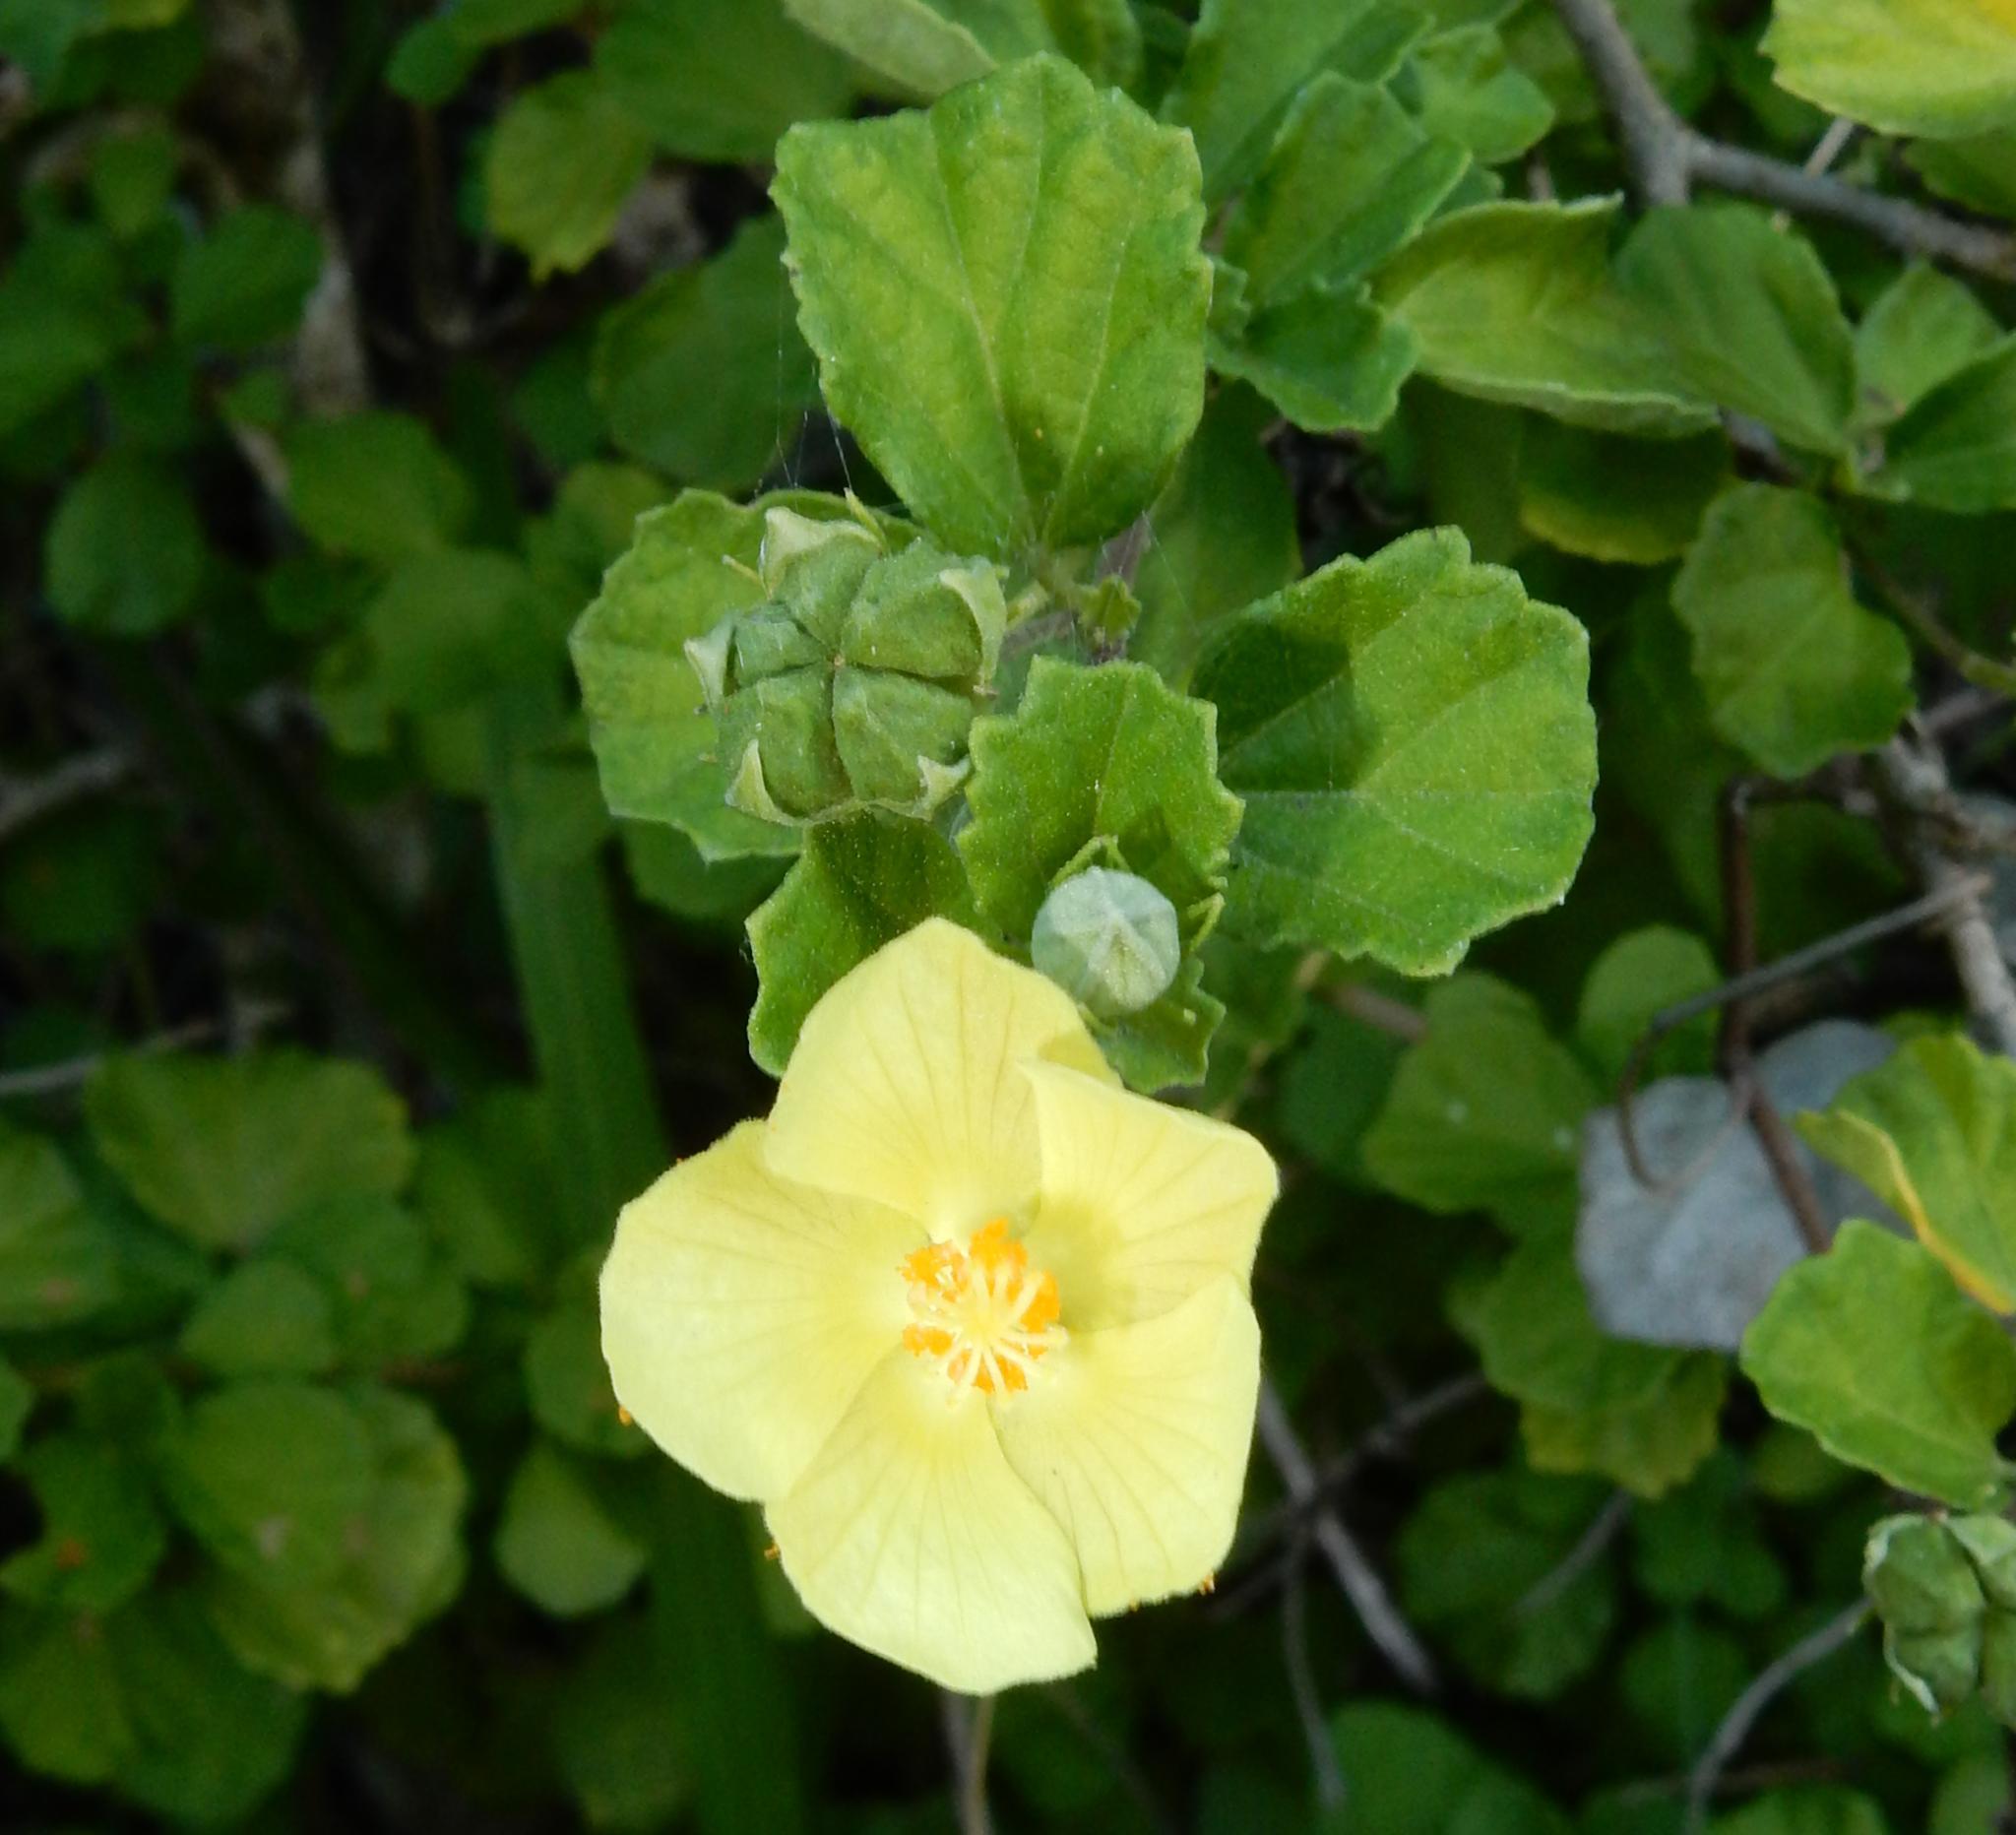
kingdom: Plantae
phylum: Tracheophyta
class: Magnoliopsida
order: Malvales
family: Malvaceae
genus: Pavonia
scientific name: Pavonia praemorsa
